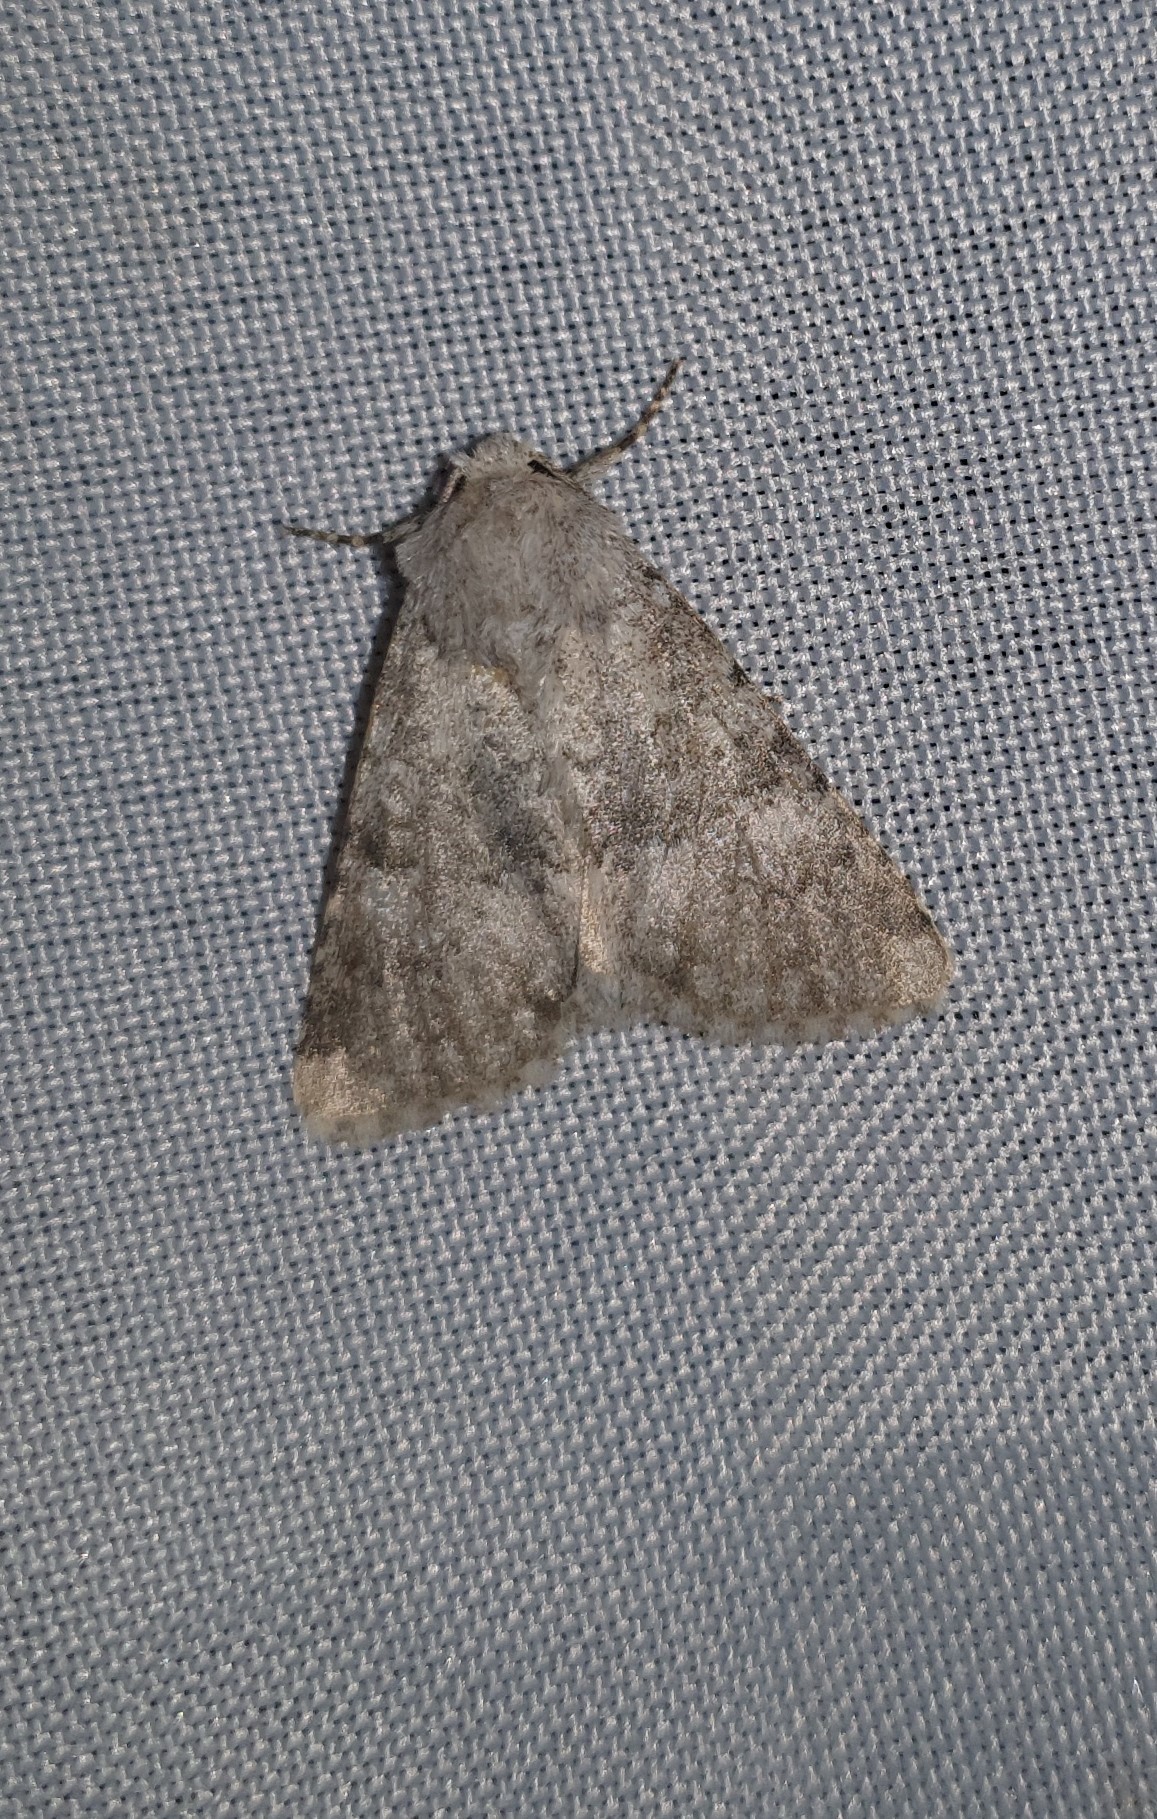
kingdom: Animalia
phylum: Arthropoda
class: Insecta
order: Lepidoptera
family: Noctuidae
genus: Polymixis
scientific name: Polymixis dubia
